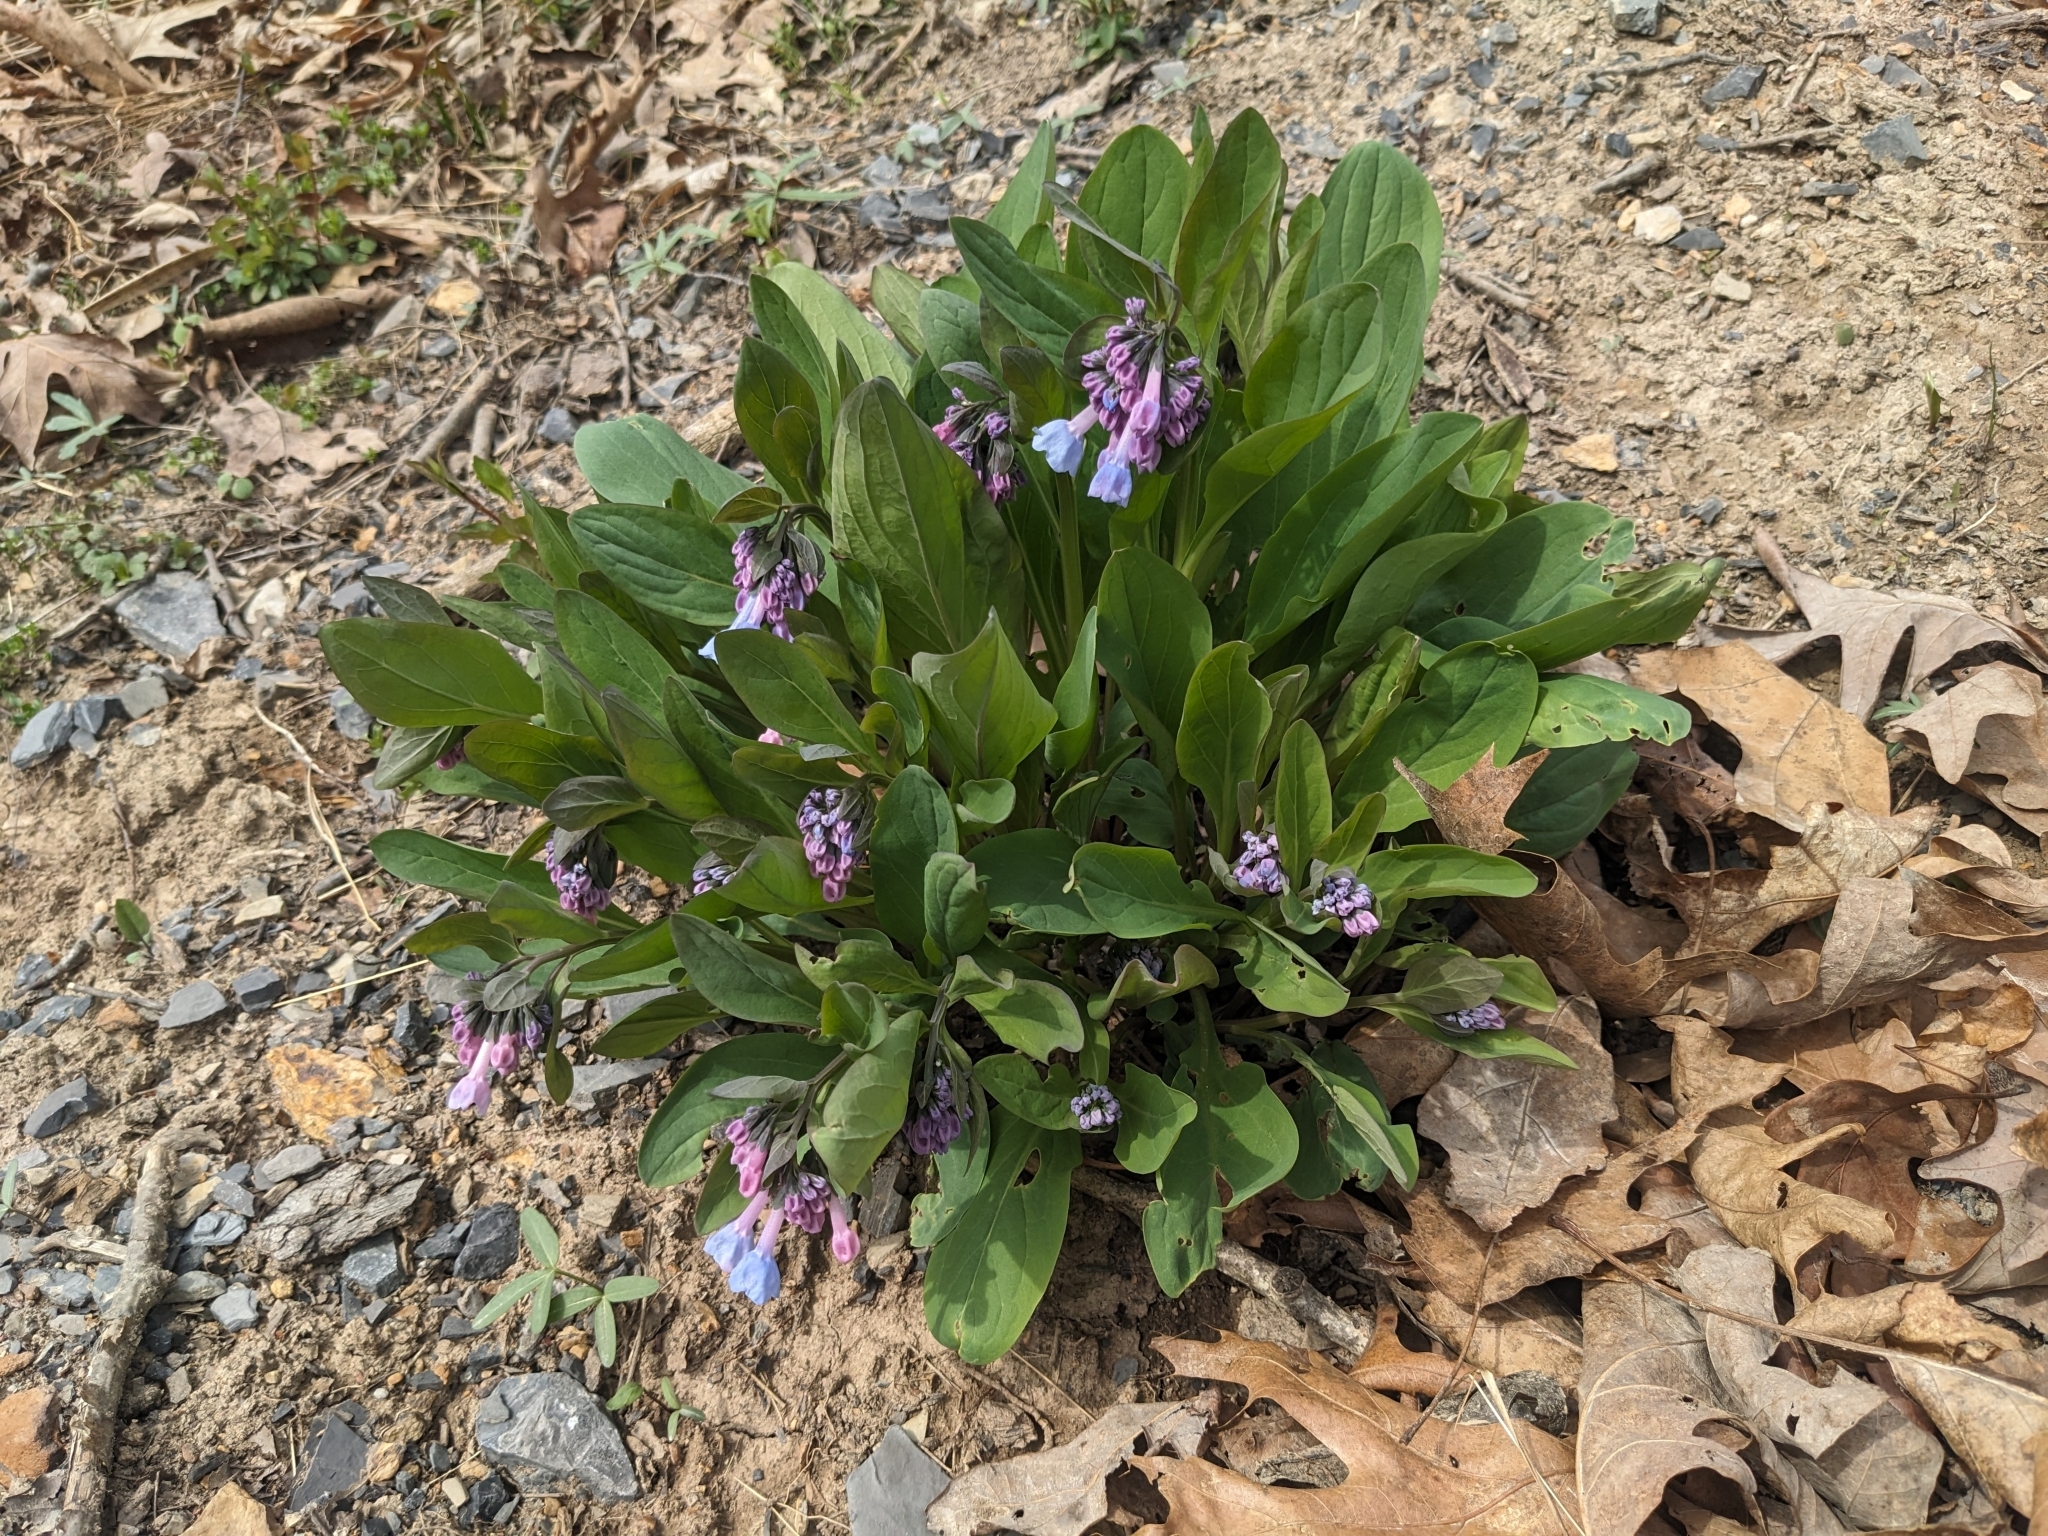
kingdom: Plantae
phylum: Tracheophyta
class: Magnoliopsida
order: Boraginales
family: Boraginaceae
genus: Mertensia
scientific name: Mertensia virginica
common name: Virginia bluebells
